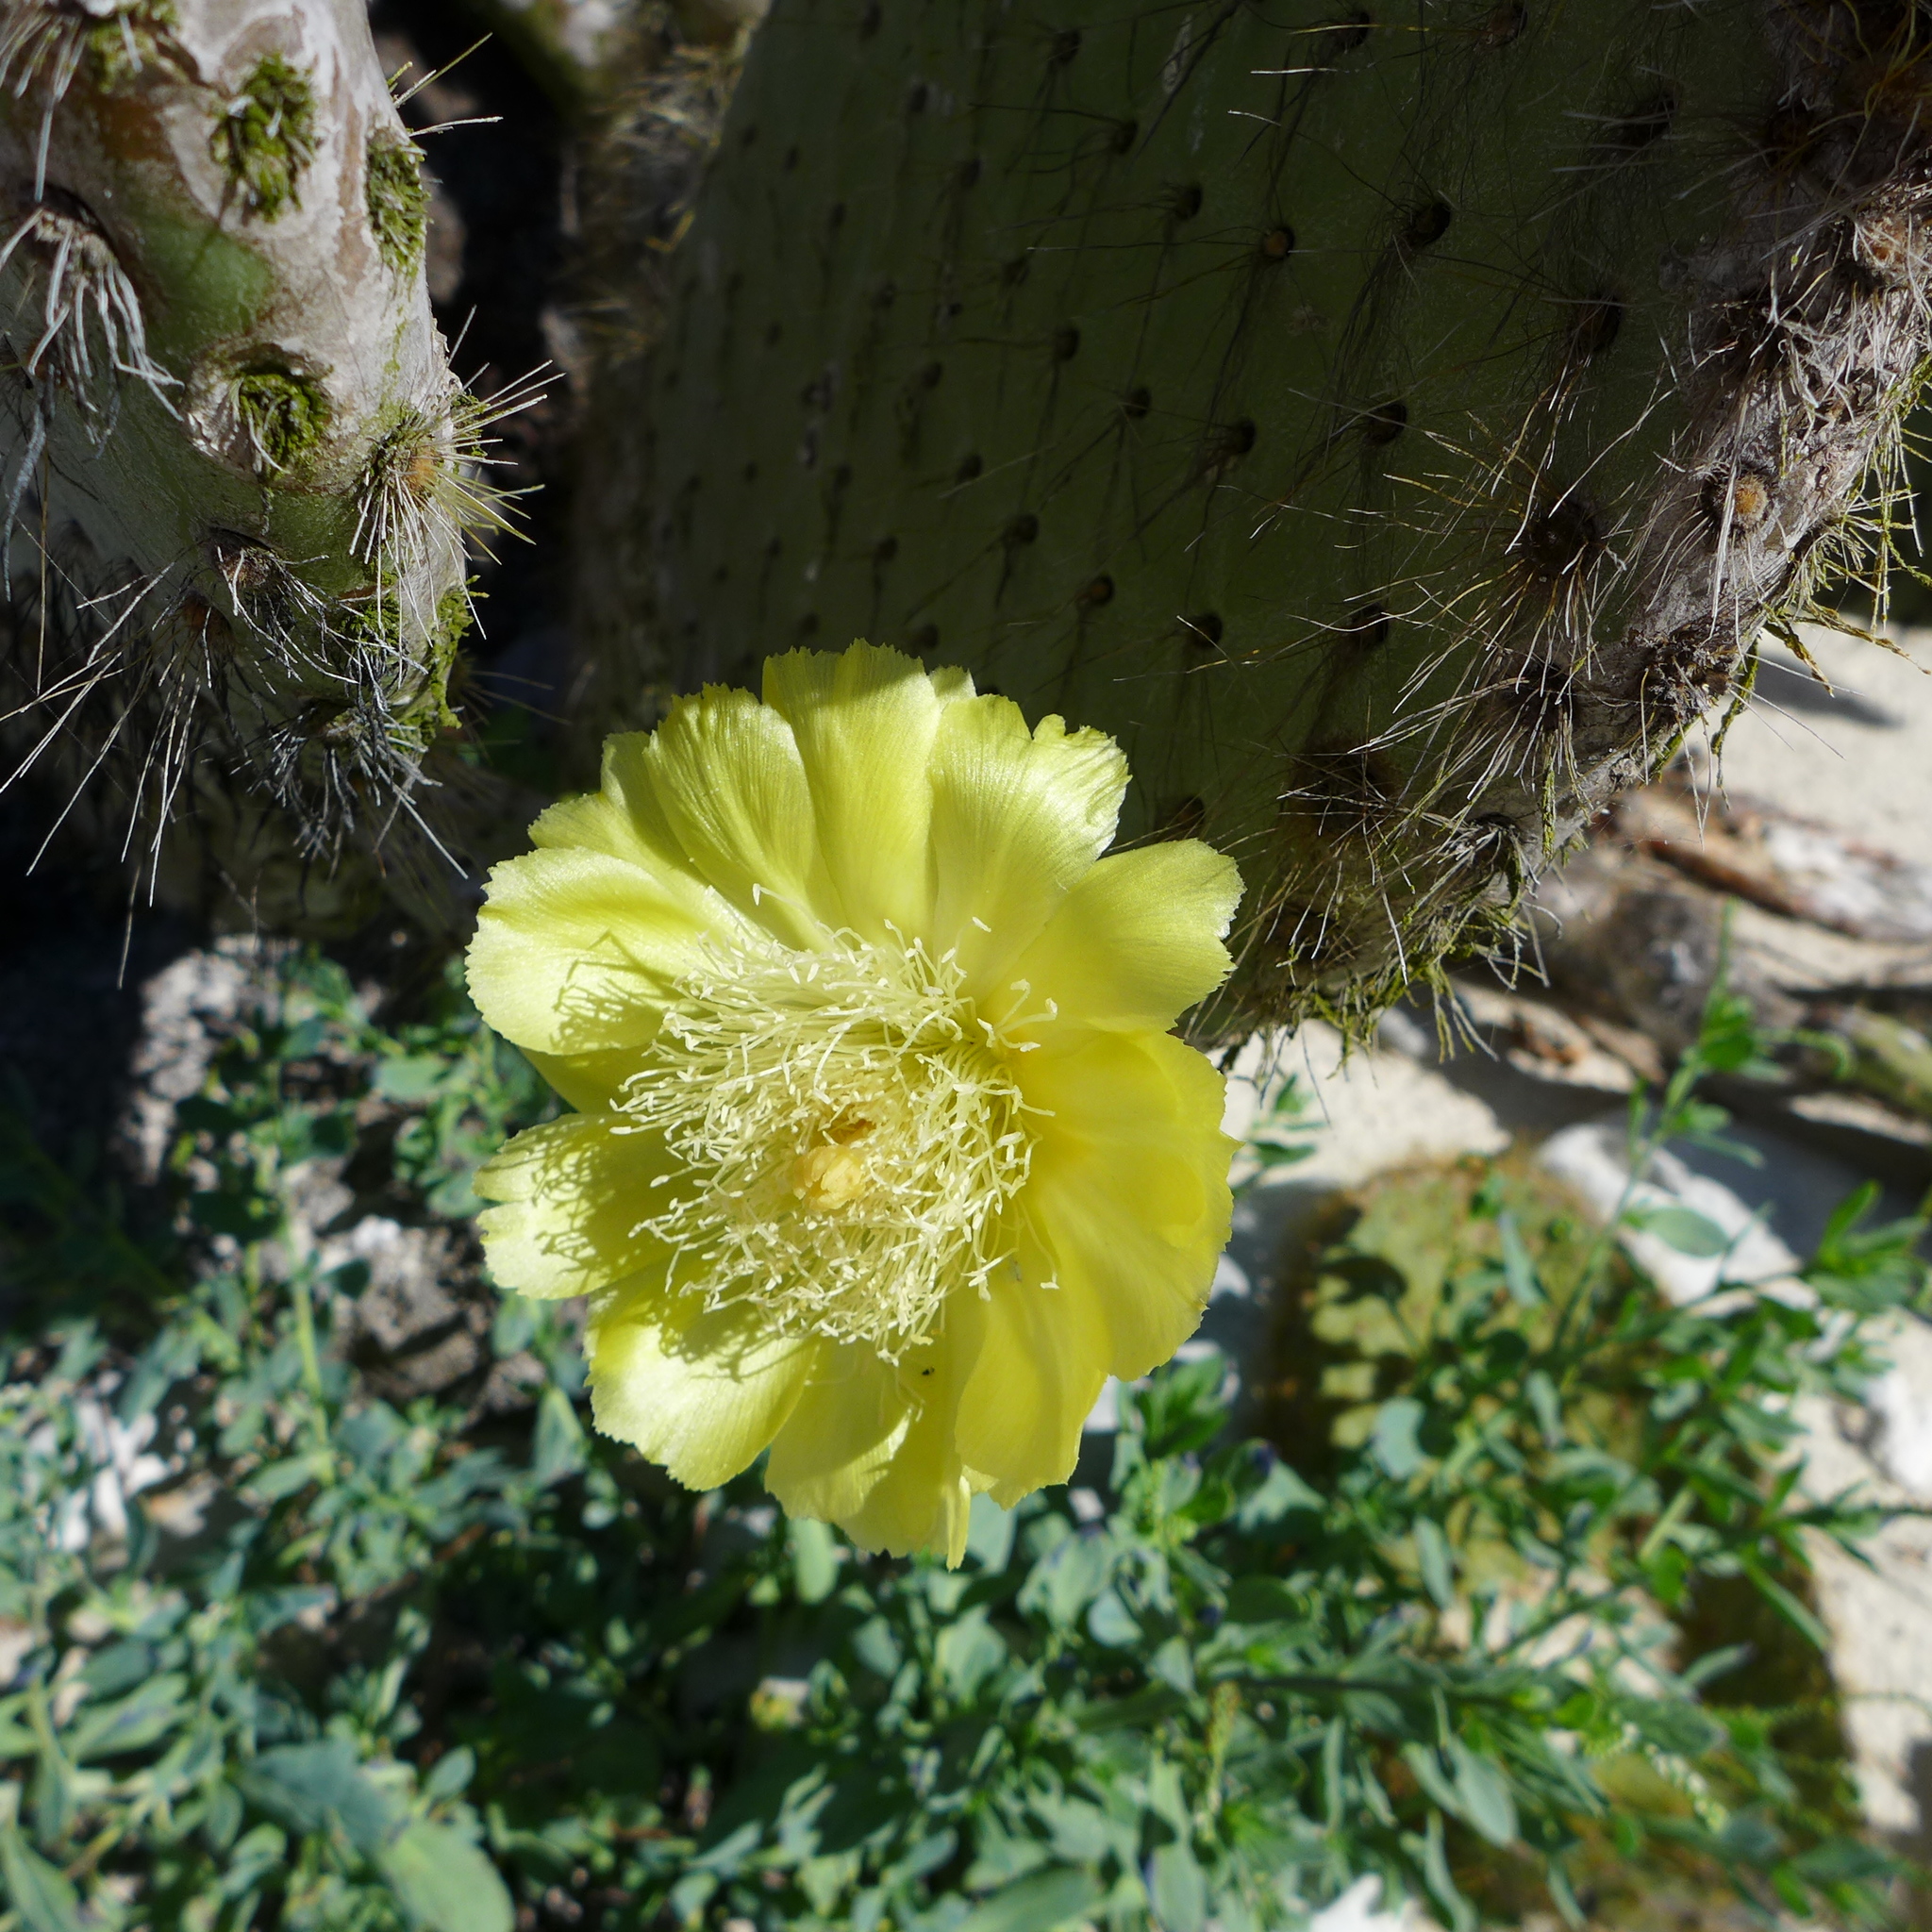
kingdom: Plantae
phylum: Tracheophyta
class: Magnoliopsida
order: Caryophyllales
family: Cactaceae
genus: Opuntia
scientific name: Opuntia galapageia
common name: Galápagos prickly pear
